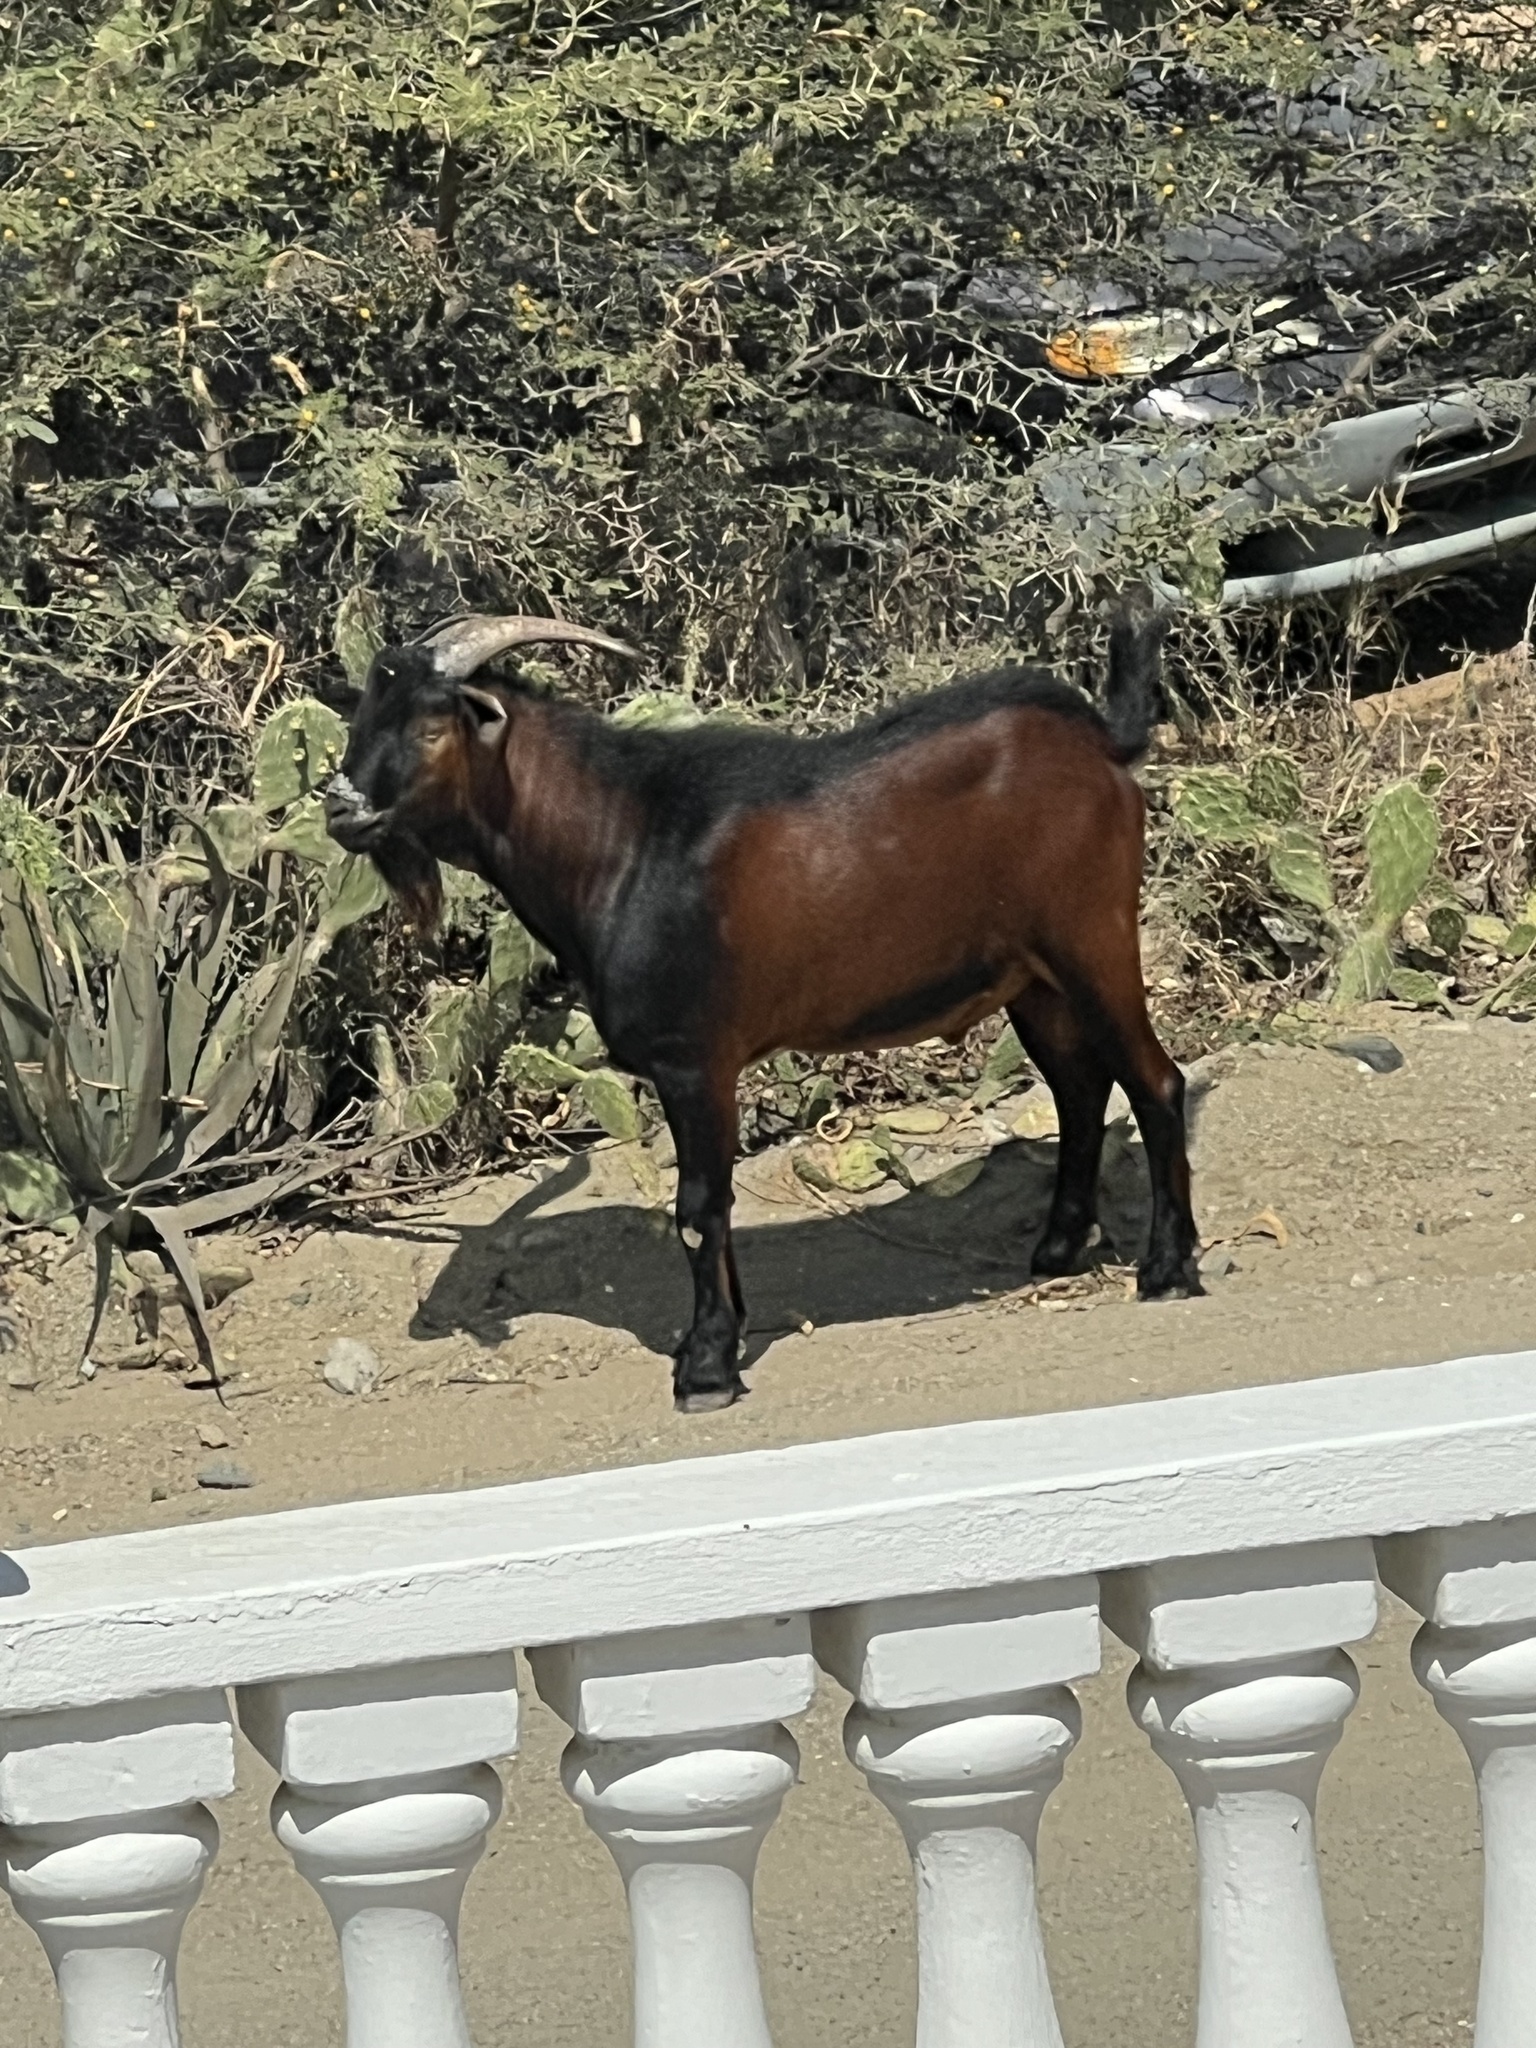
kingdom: Animalia
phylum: Chordata
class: Mammalia
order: Artiodactyla
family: Bovidae
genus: Capra
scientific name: Capra hircus
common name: Domestic goat
